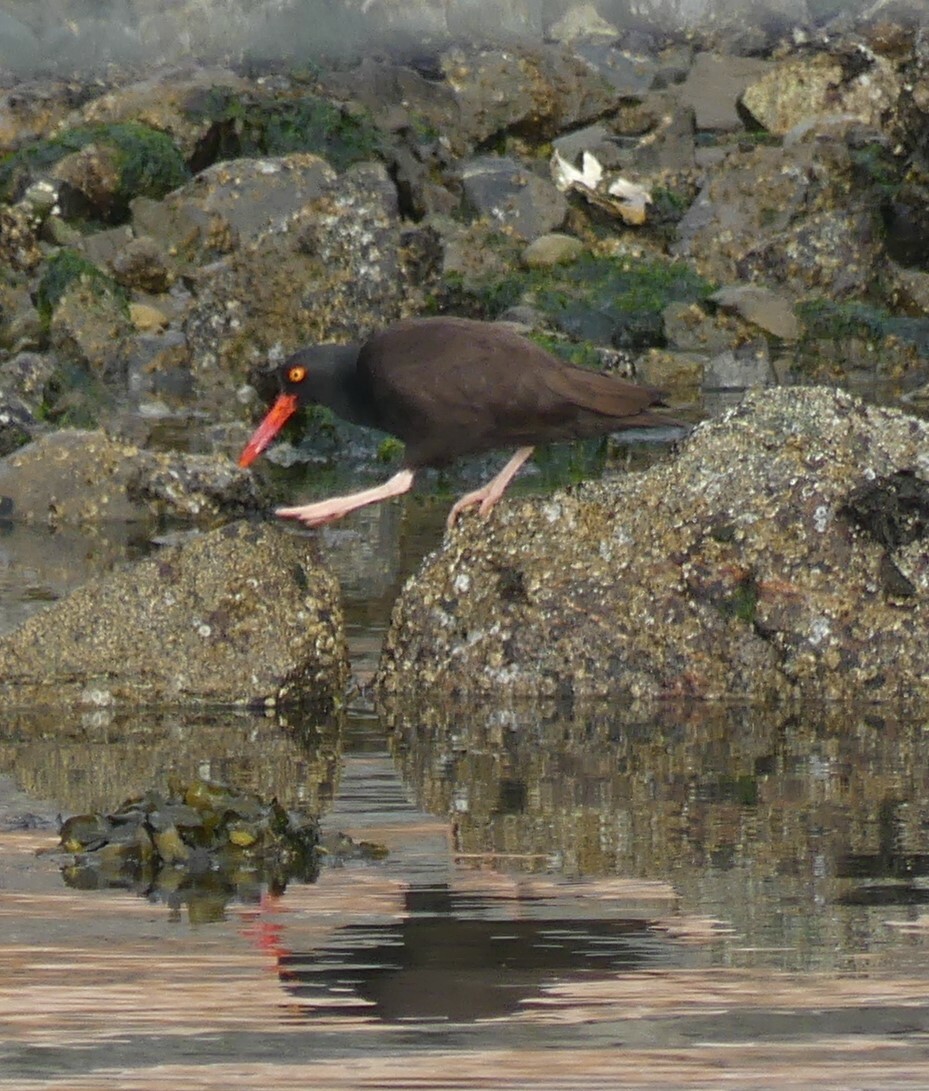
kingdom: Animalia
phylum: Chordata
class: Aves
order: Charadriiformes
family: Haematopodidae
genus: Haematopus
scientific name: Haematopus bachmani
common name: Black oystercatcher
